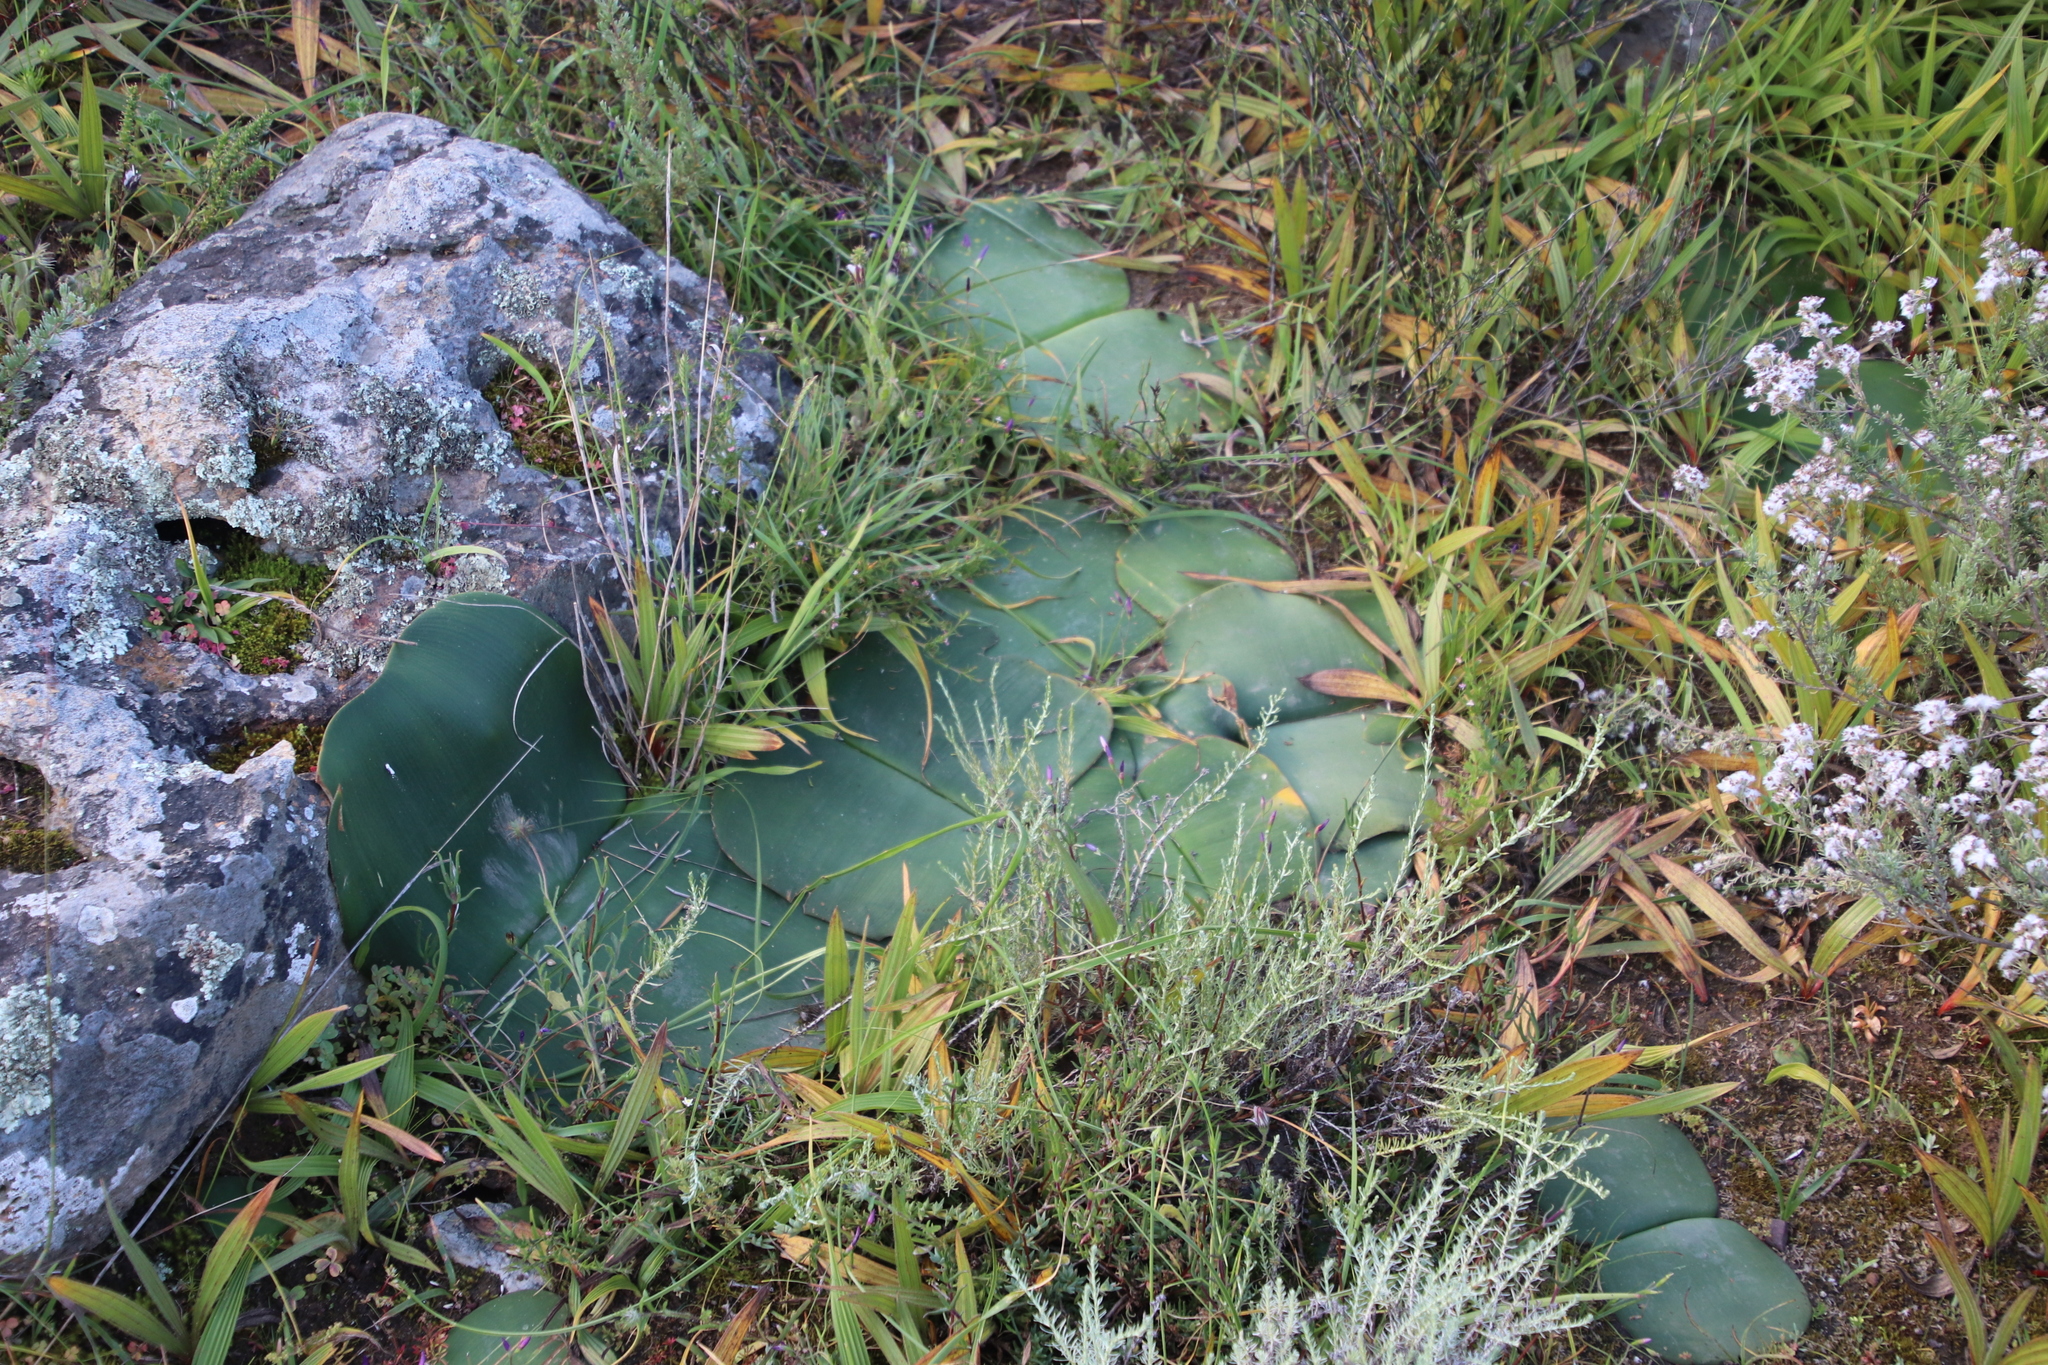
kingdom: Plantae
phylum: Tracheophyta
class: Liliopsida
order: Asparagales
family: Amaryllidaceae
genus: Haemanthus
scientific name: Haemanthus sanguineus
